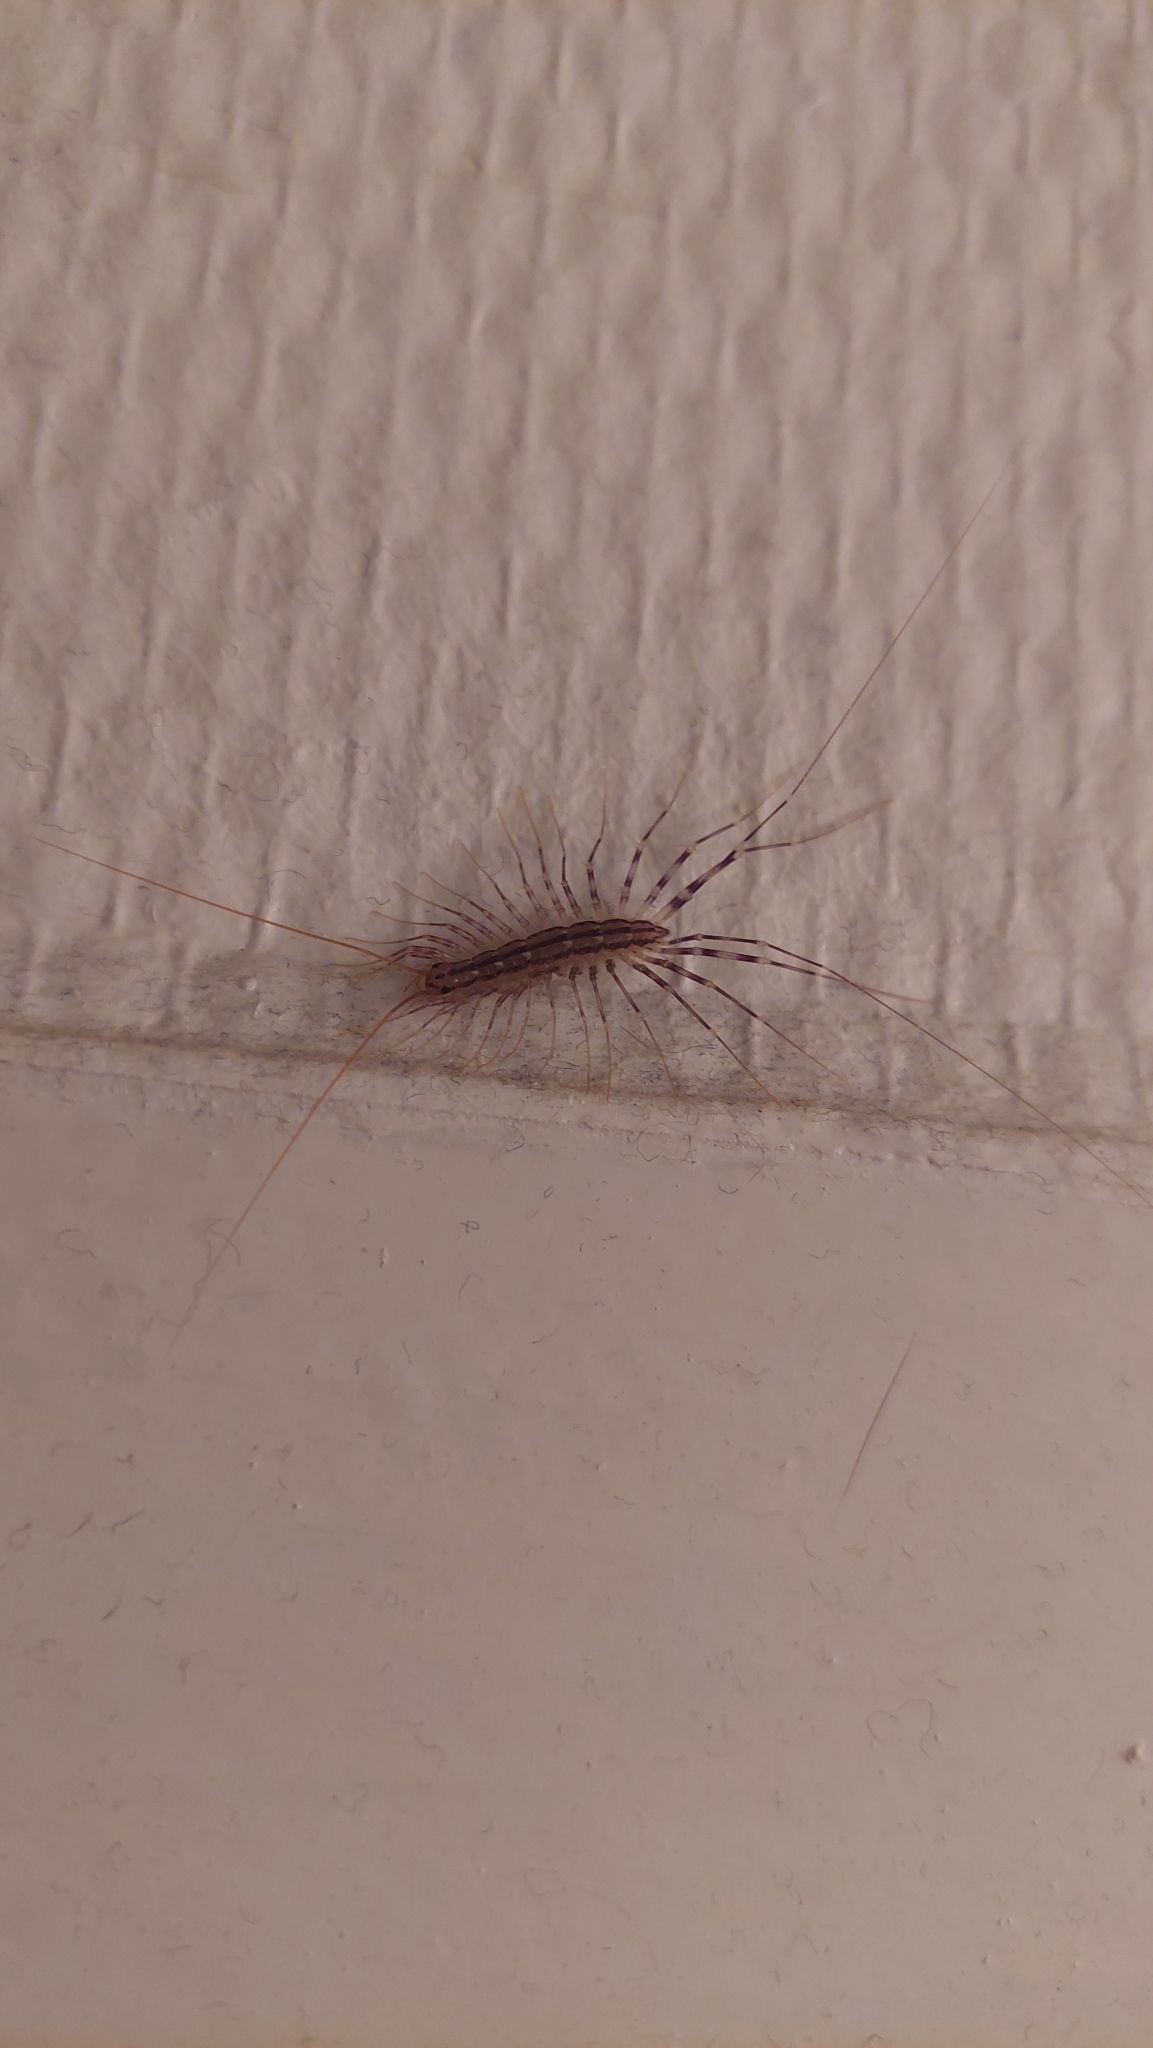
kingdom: Animalia
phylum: Arthropoda
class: Chilopoda
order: Scutigeromorpha
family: Scutigeridae
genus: Scutigera
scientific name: Scutigera coleoptrata
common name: House centipede
